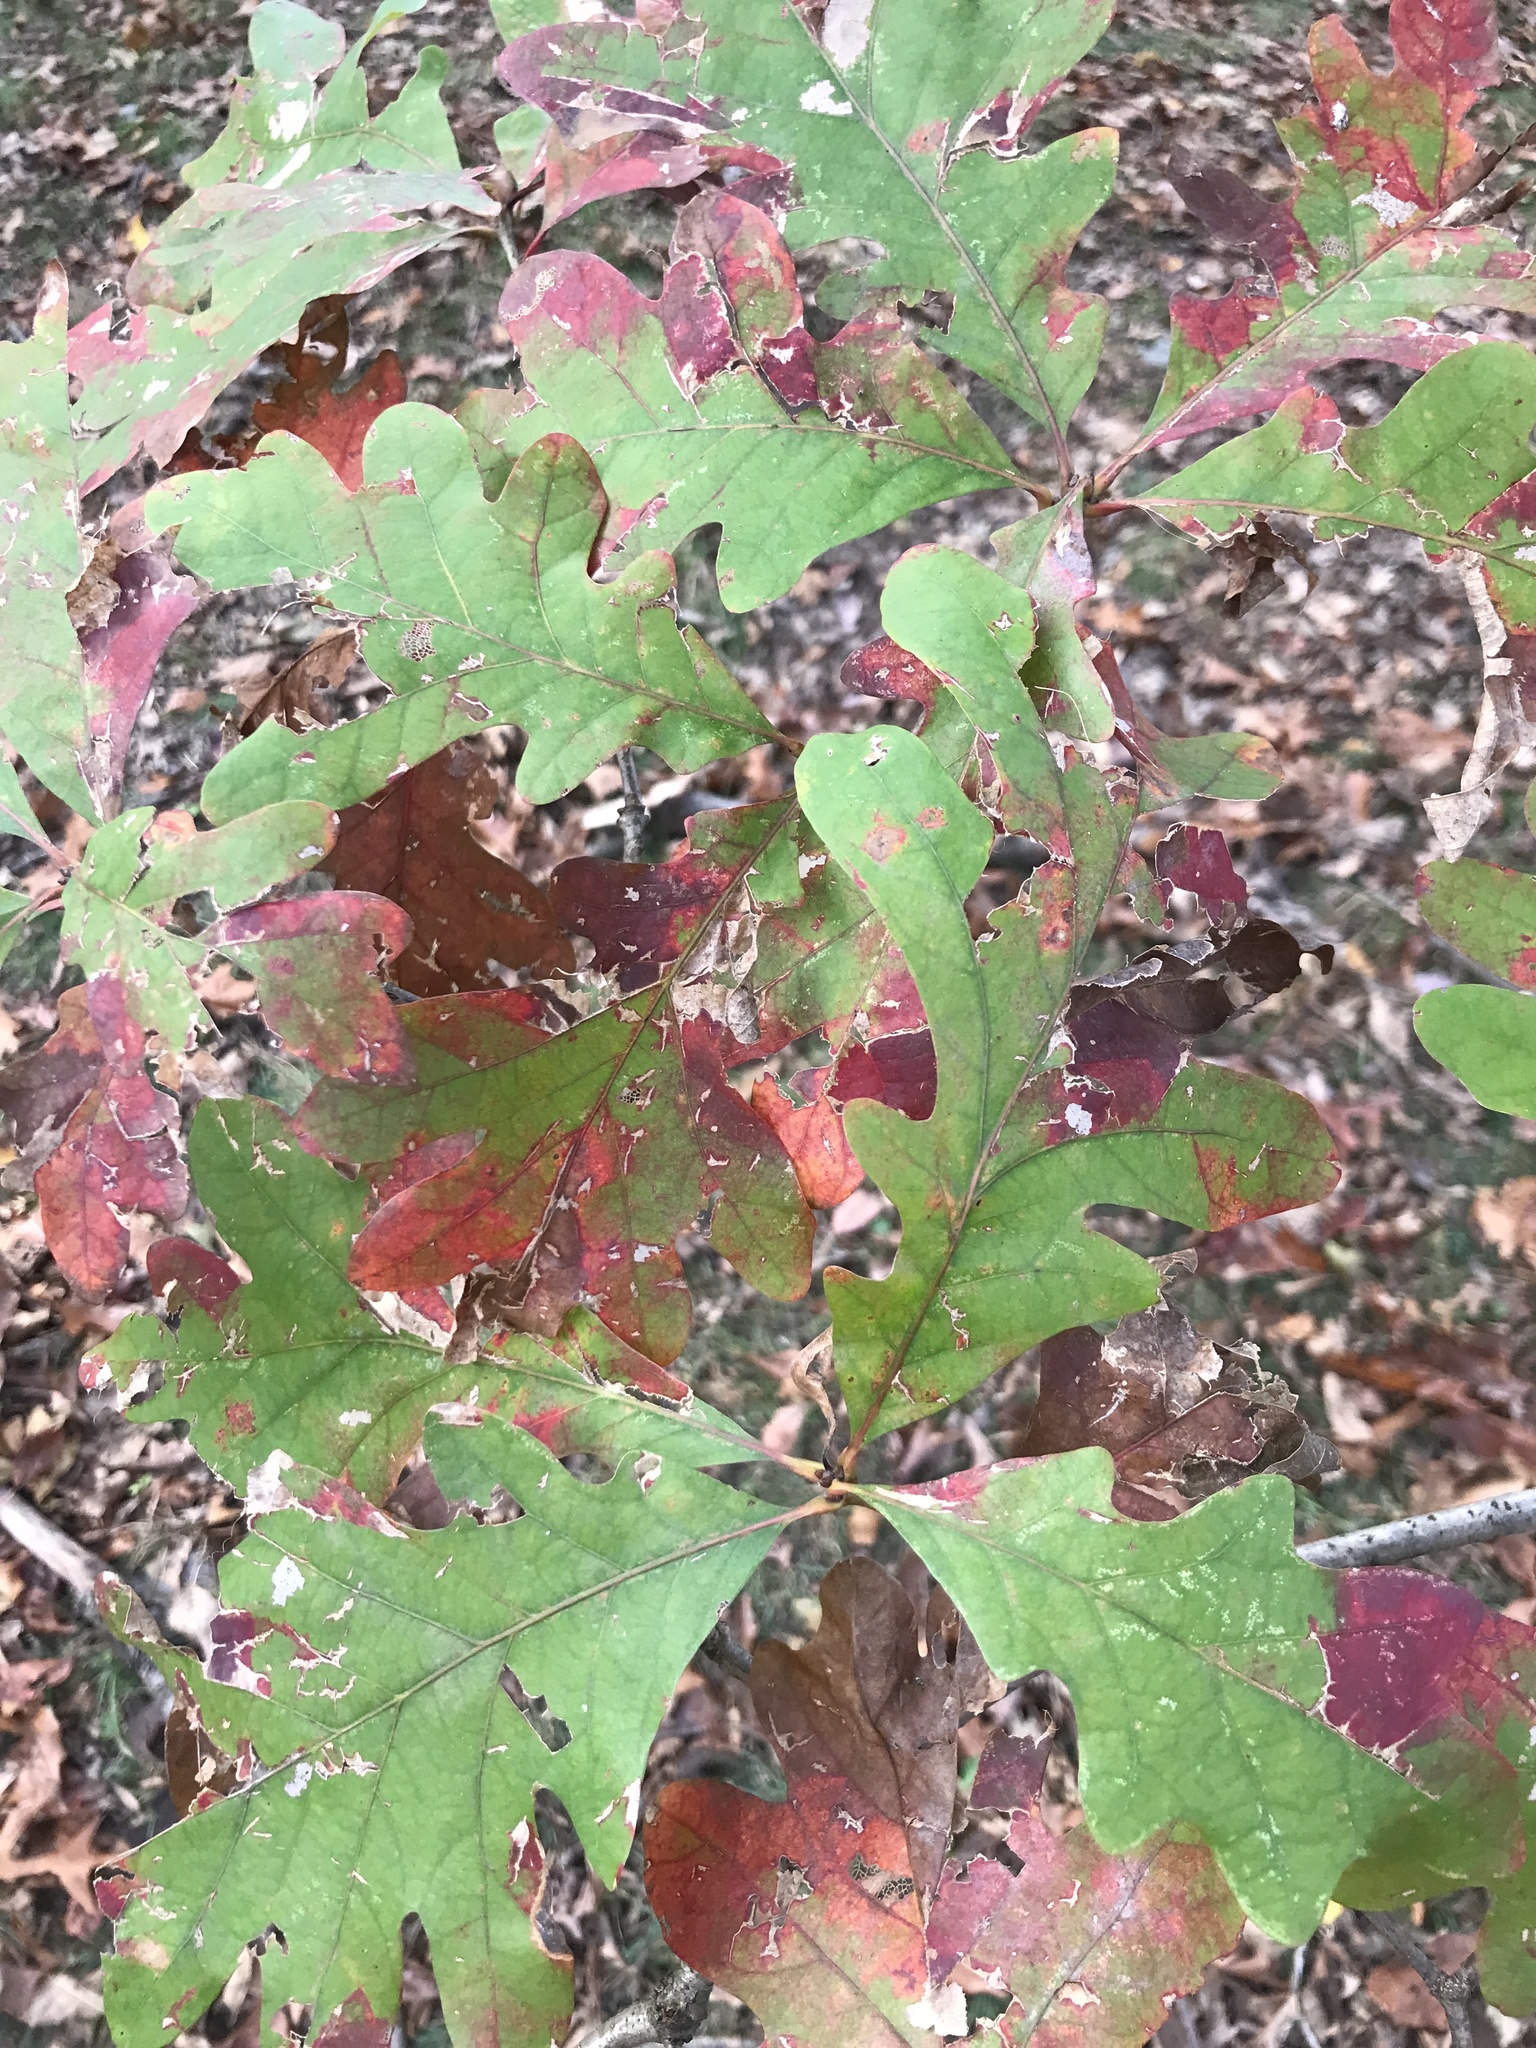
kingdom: Plantae
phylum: Tracheophyta
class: Magnoliopsida
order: Fagales
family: Fagaceae
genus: Quercus
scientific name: Quercus alba
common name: White oak
